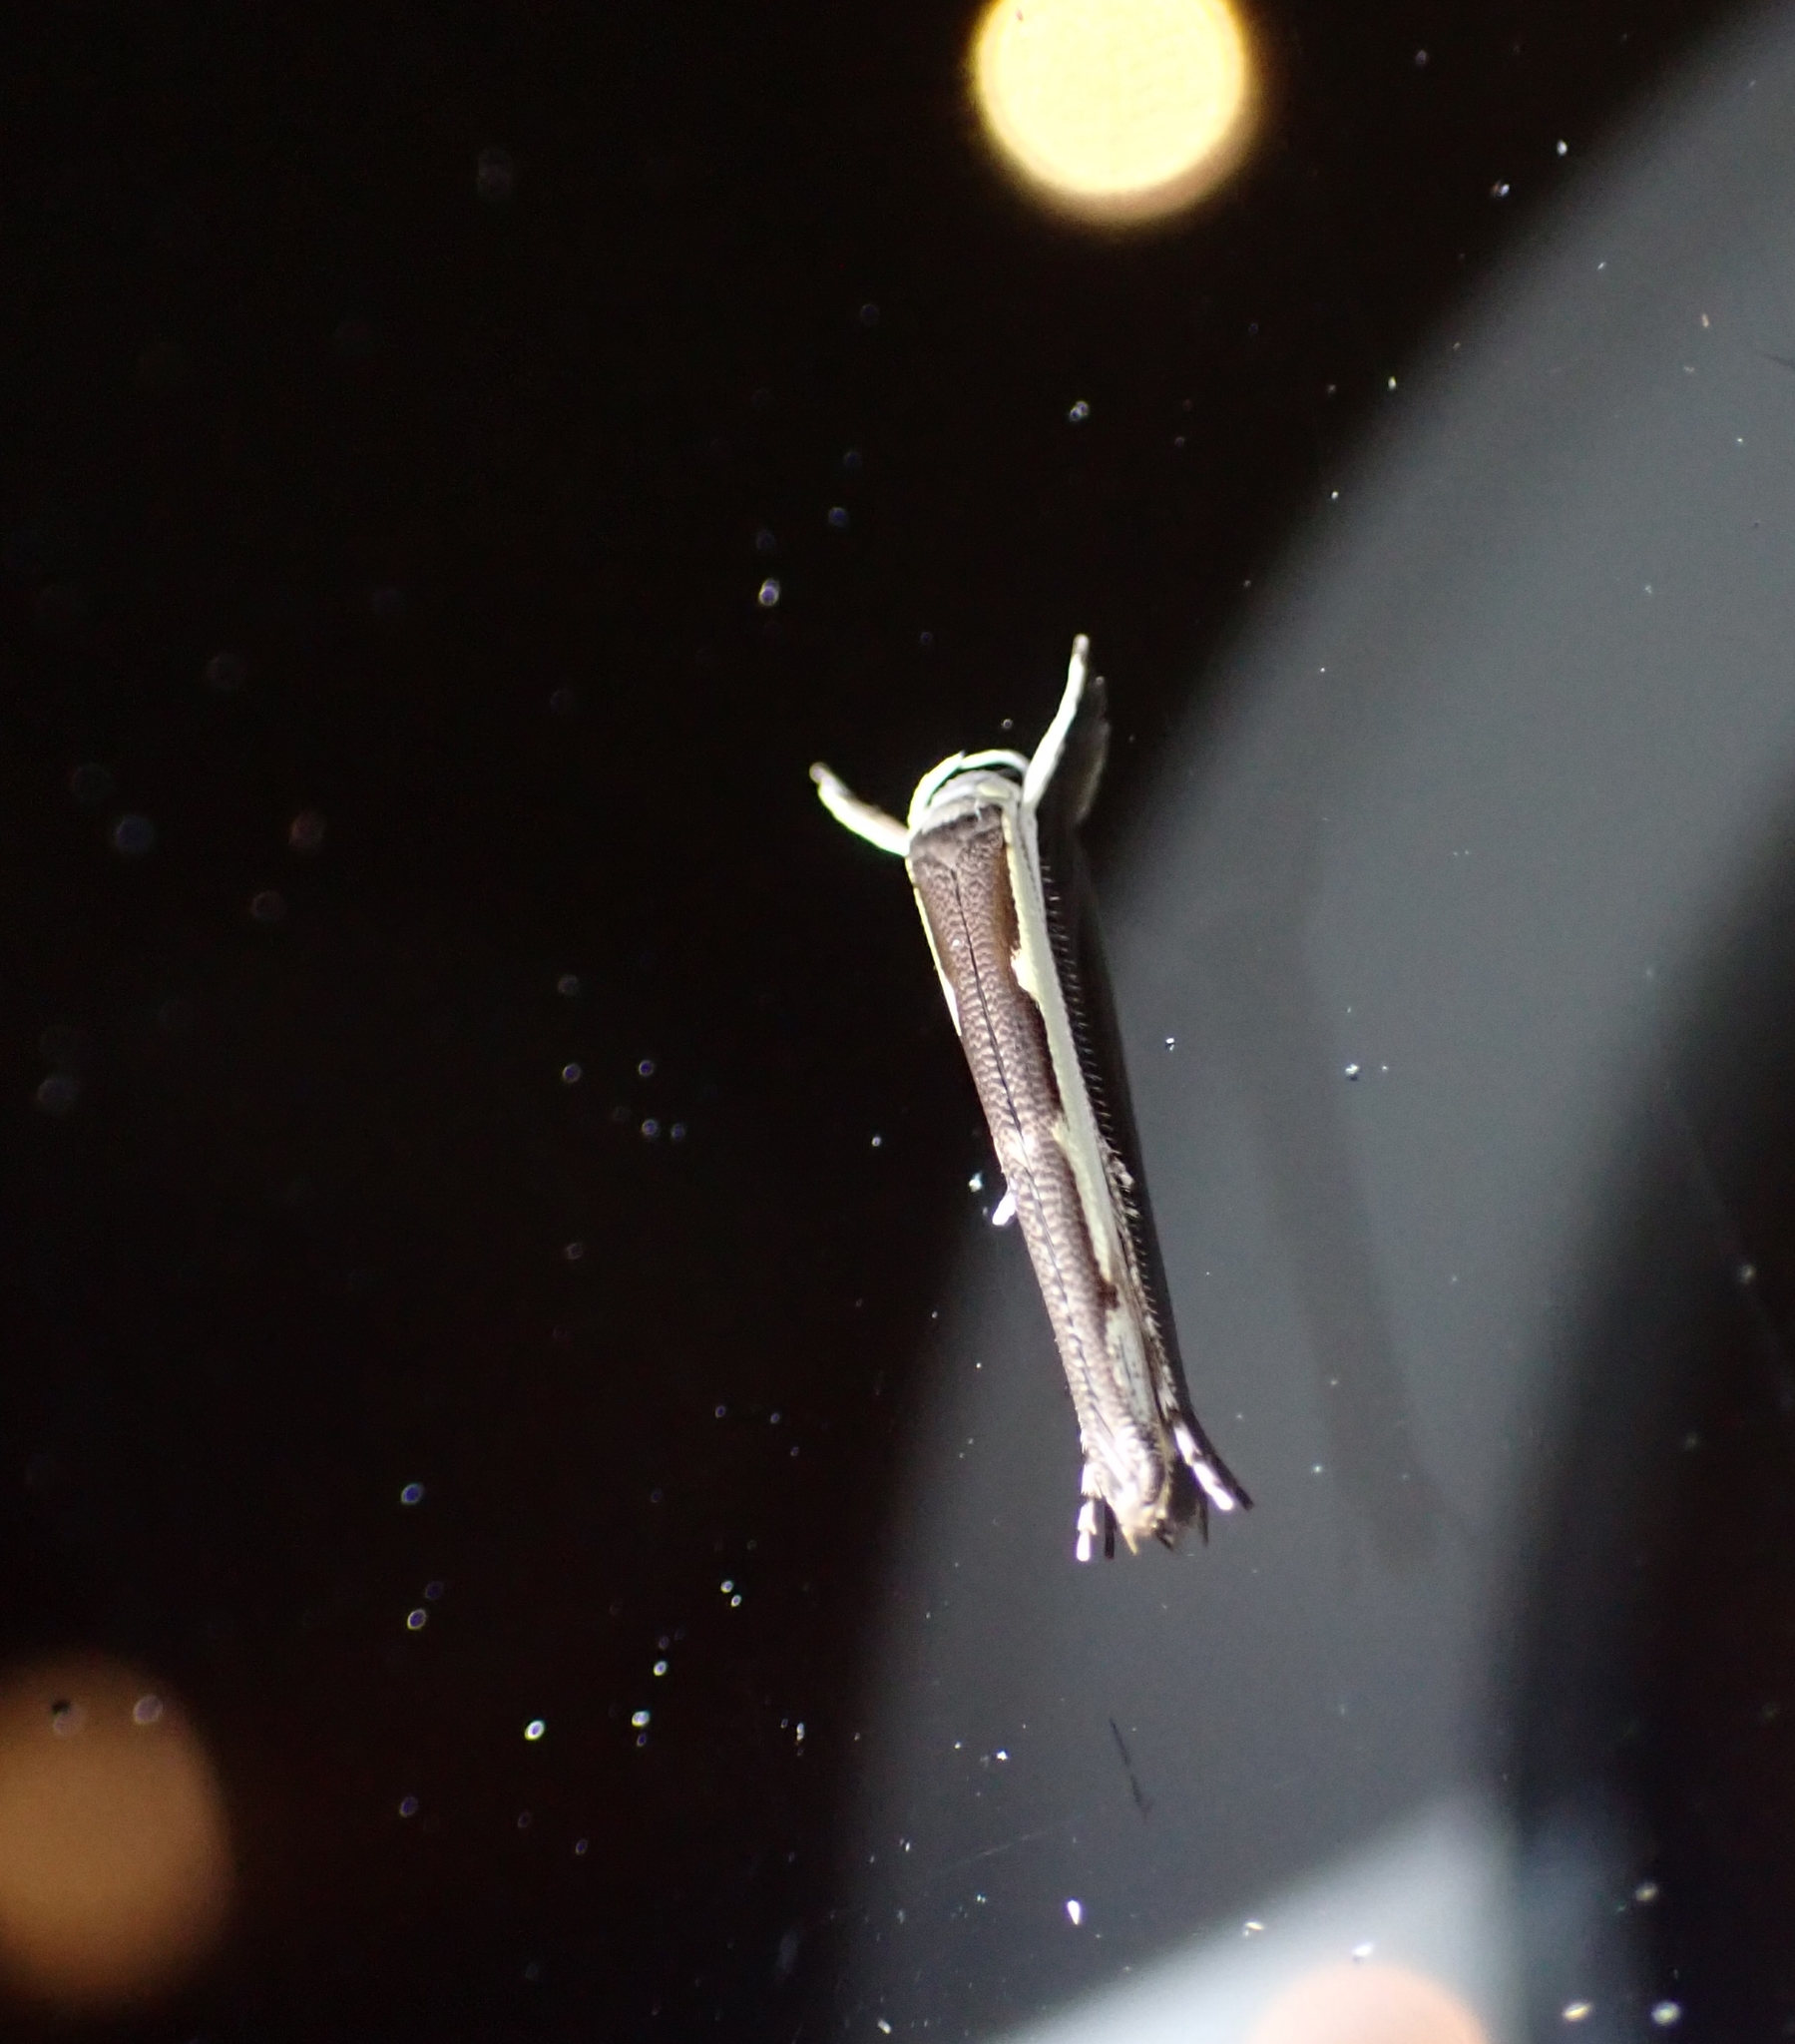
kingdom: Animalia
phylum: Arthropoda
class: Insecta
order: Lepidoptera
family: Roeslerstammiidae
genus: Vanicela
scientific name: Vanicela disjunctella
